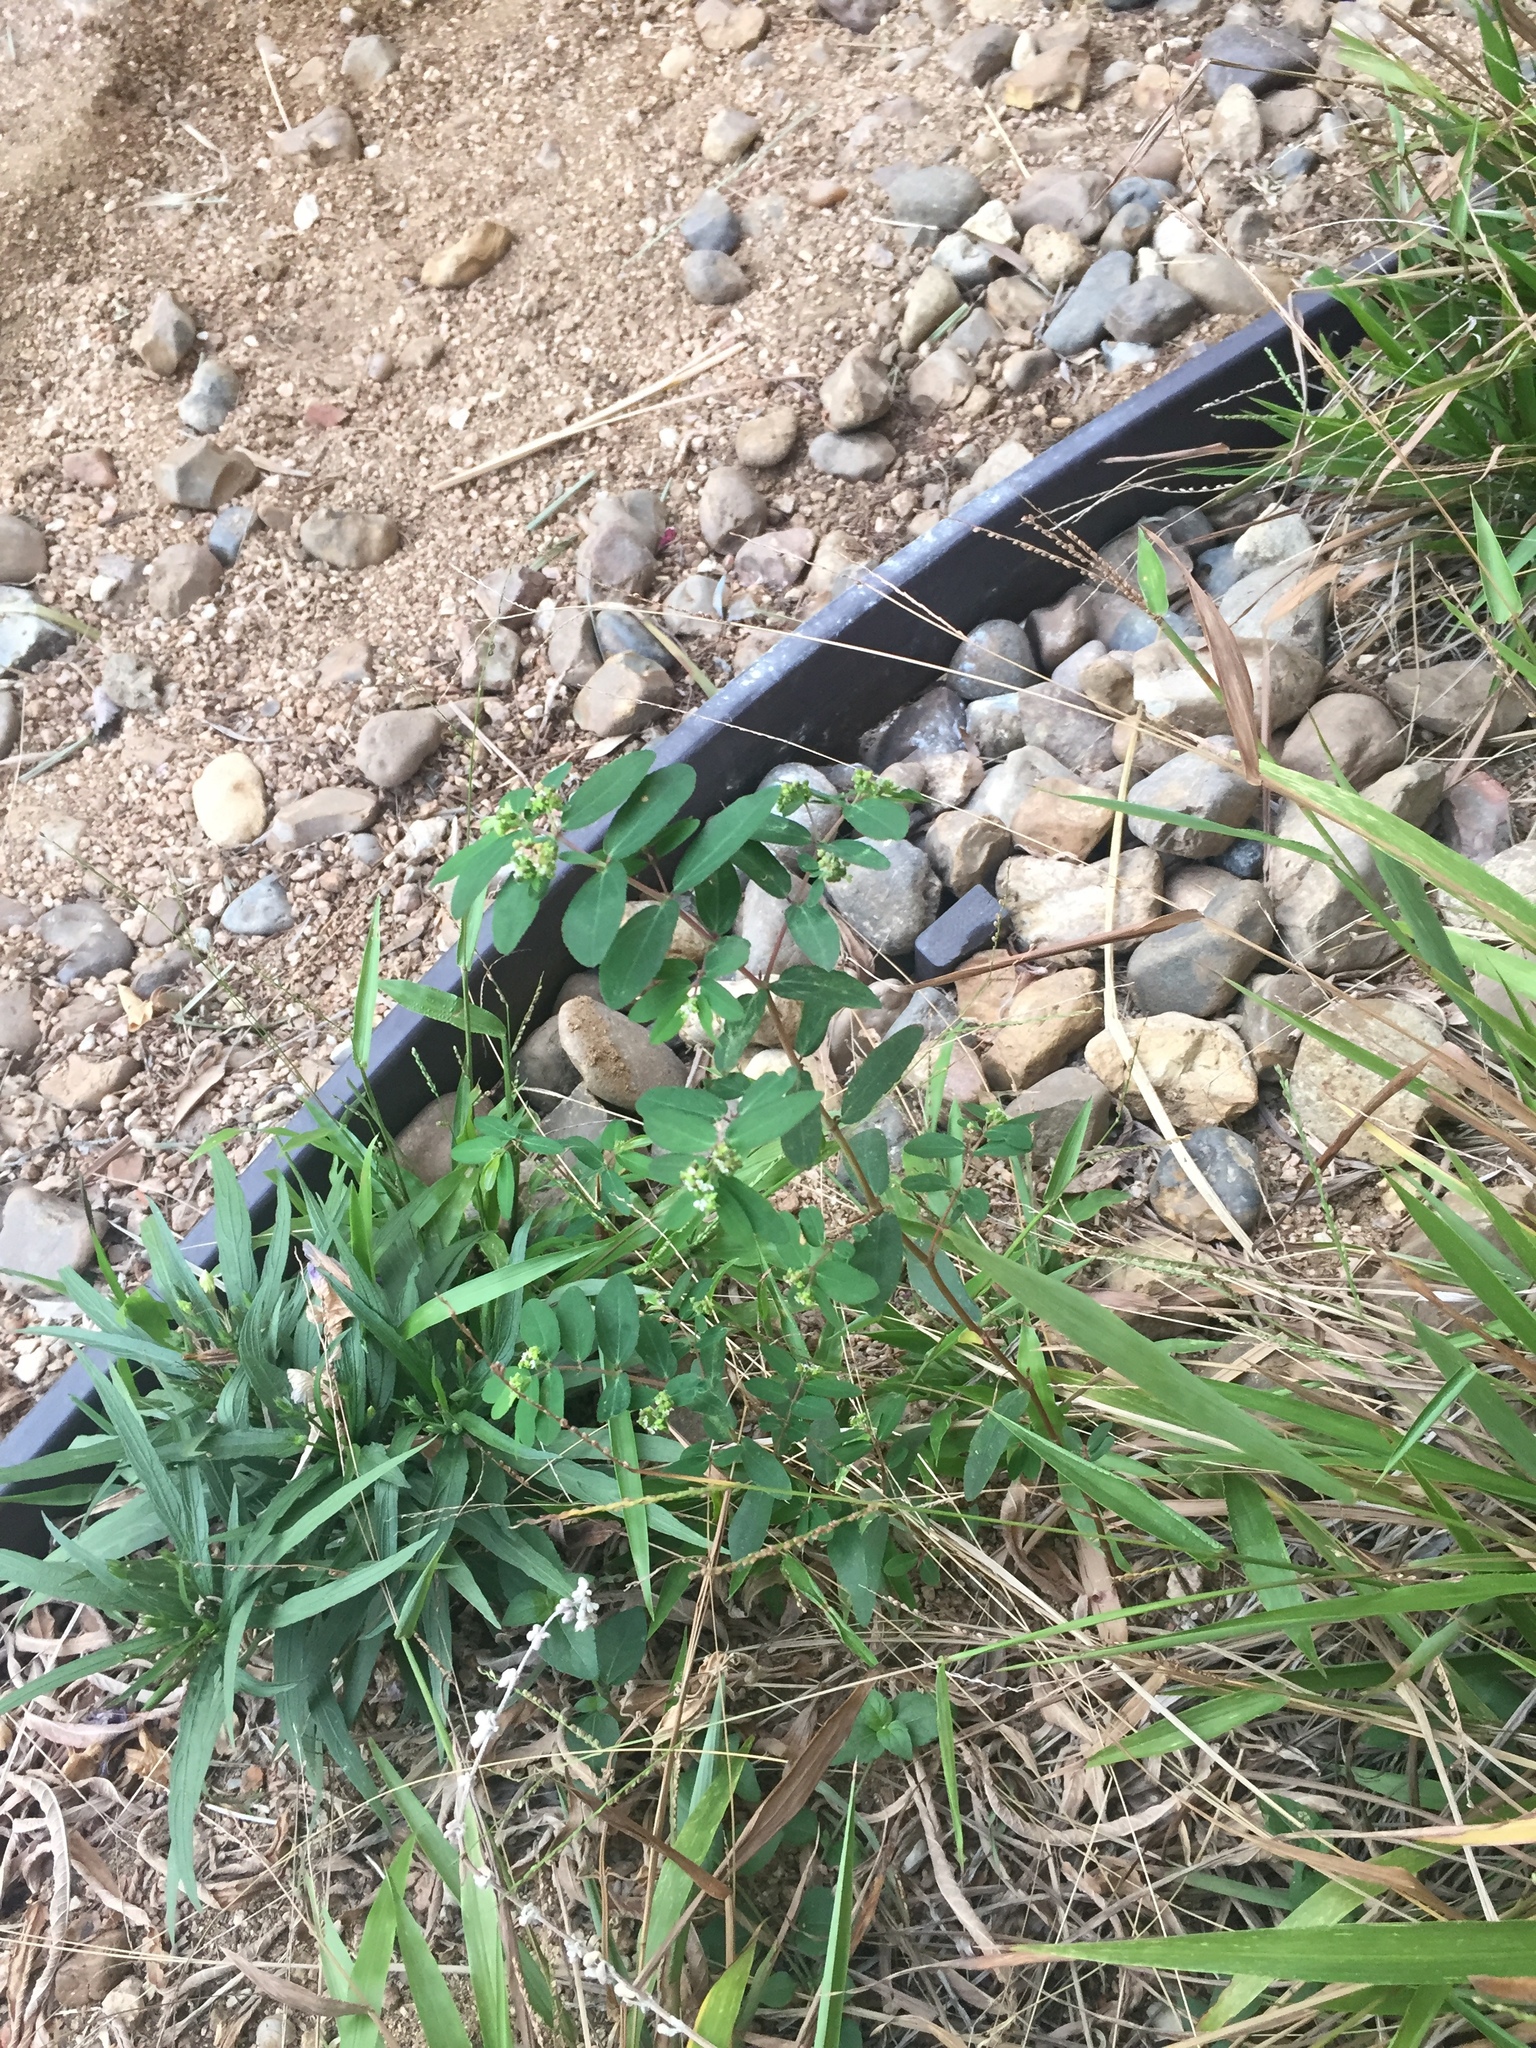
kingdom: Plantae
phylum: Tracheophyta
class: Magnoliopsida
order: Malpighiales
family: Euphorbiaceae
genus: Euphorbia
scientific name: Euphorbia hypericifolia
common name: Graceful sandmat
